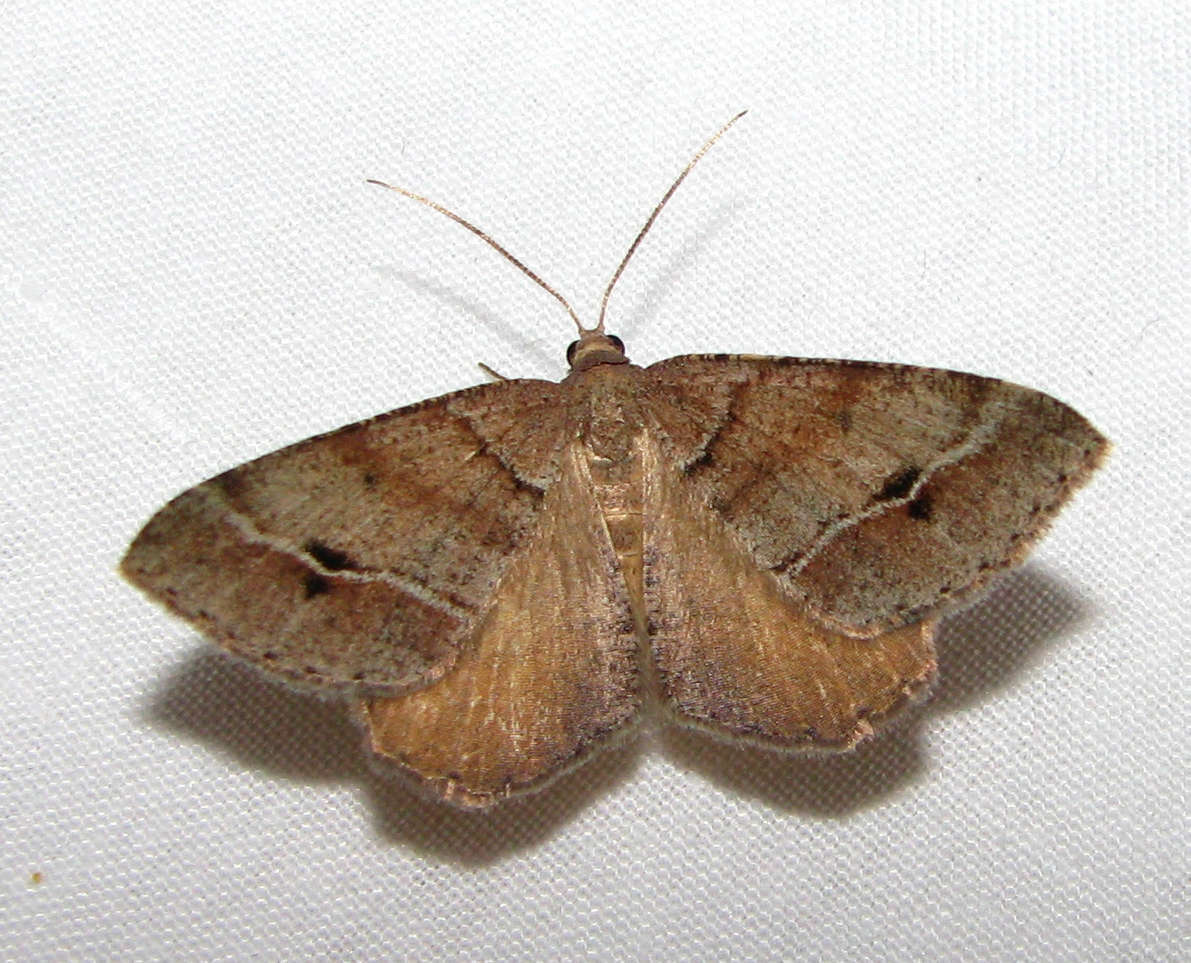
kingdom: Animalia
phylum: Arthropoda
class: Insecta
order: Lepidoptera
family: Geometridae
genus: Parosteodes
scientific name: Parosteodes fictiliaria
